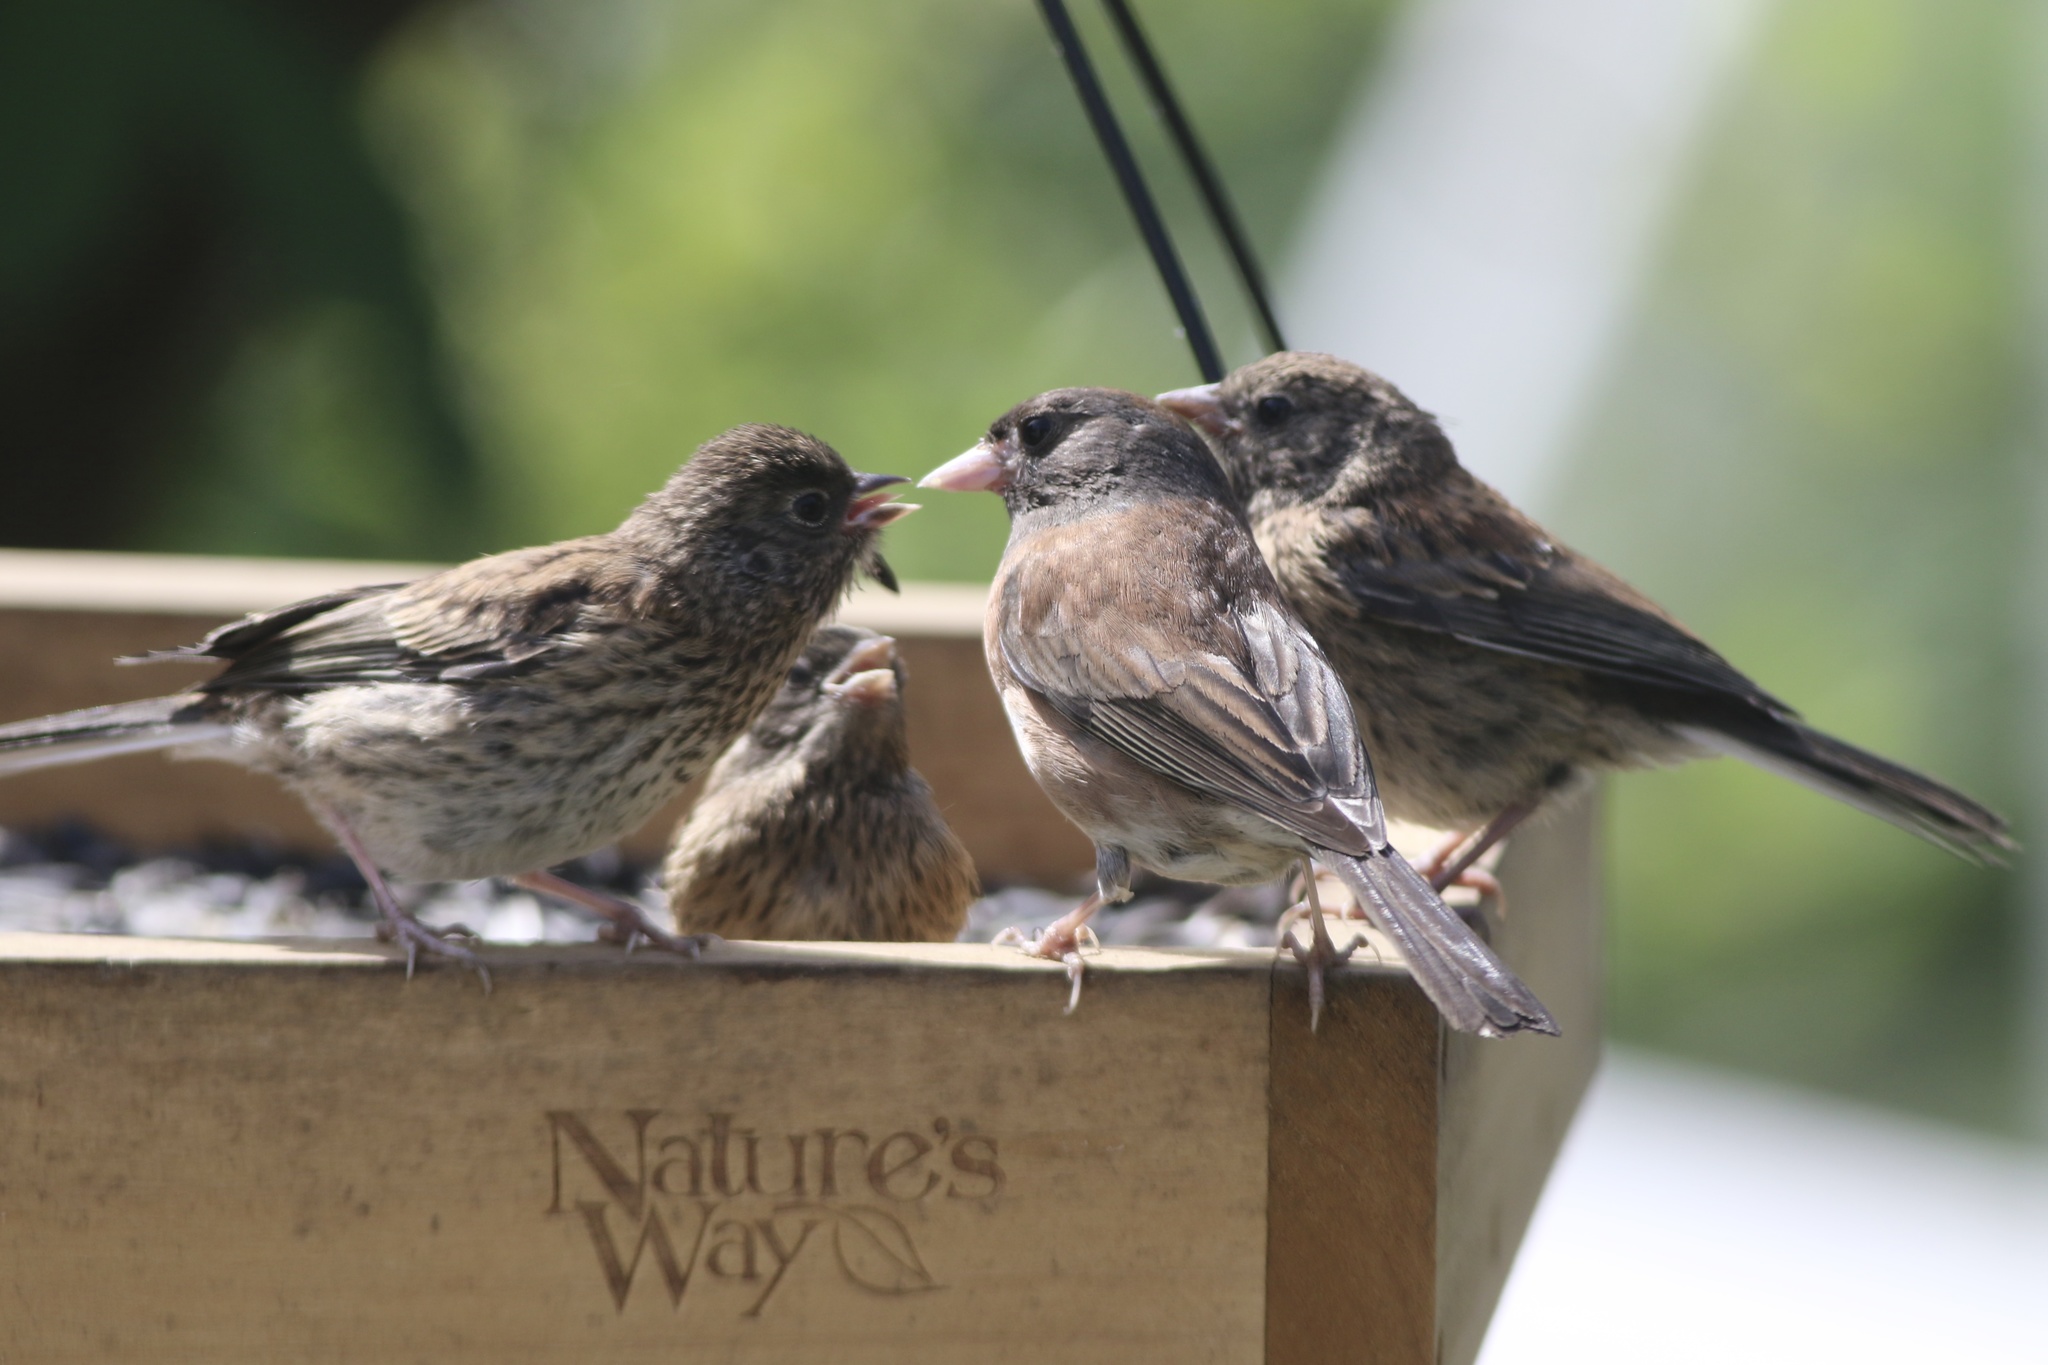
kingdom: Animalia
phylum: Chordata
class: Aves
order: Passeriformes
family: Passerellidae
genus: Junco
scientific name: Junco hyemalis
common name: Dark-eyed junco
